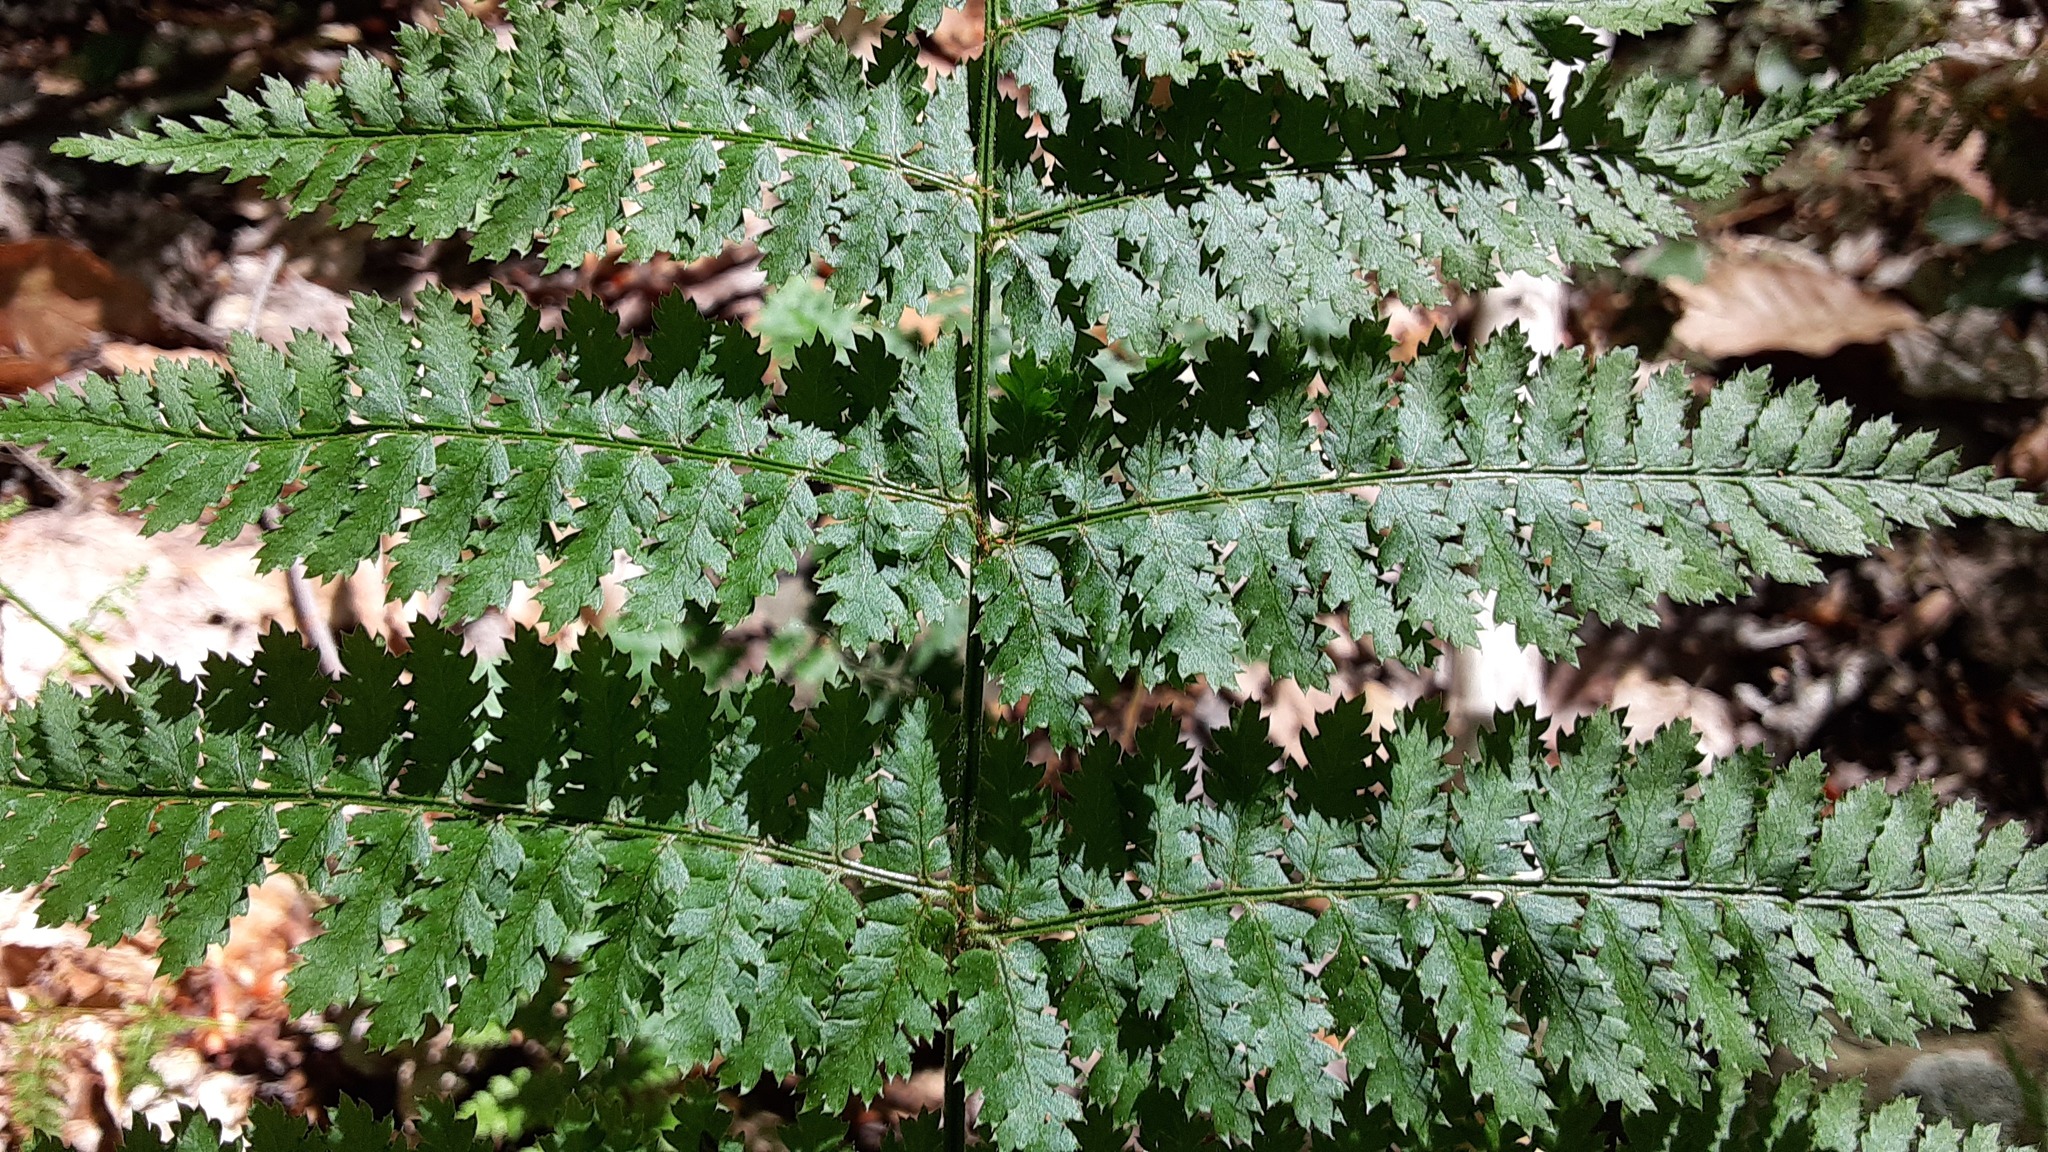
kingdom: Plantae
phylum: Tracheophyta
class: Polypodiopsida
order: Polypodiales
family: Dryopteridaceae
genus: Dryopteris
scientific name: Dryopteris intermedia
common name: Evergreen wood fern
